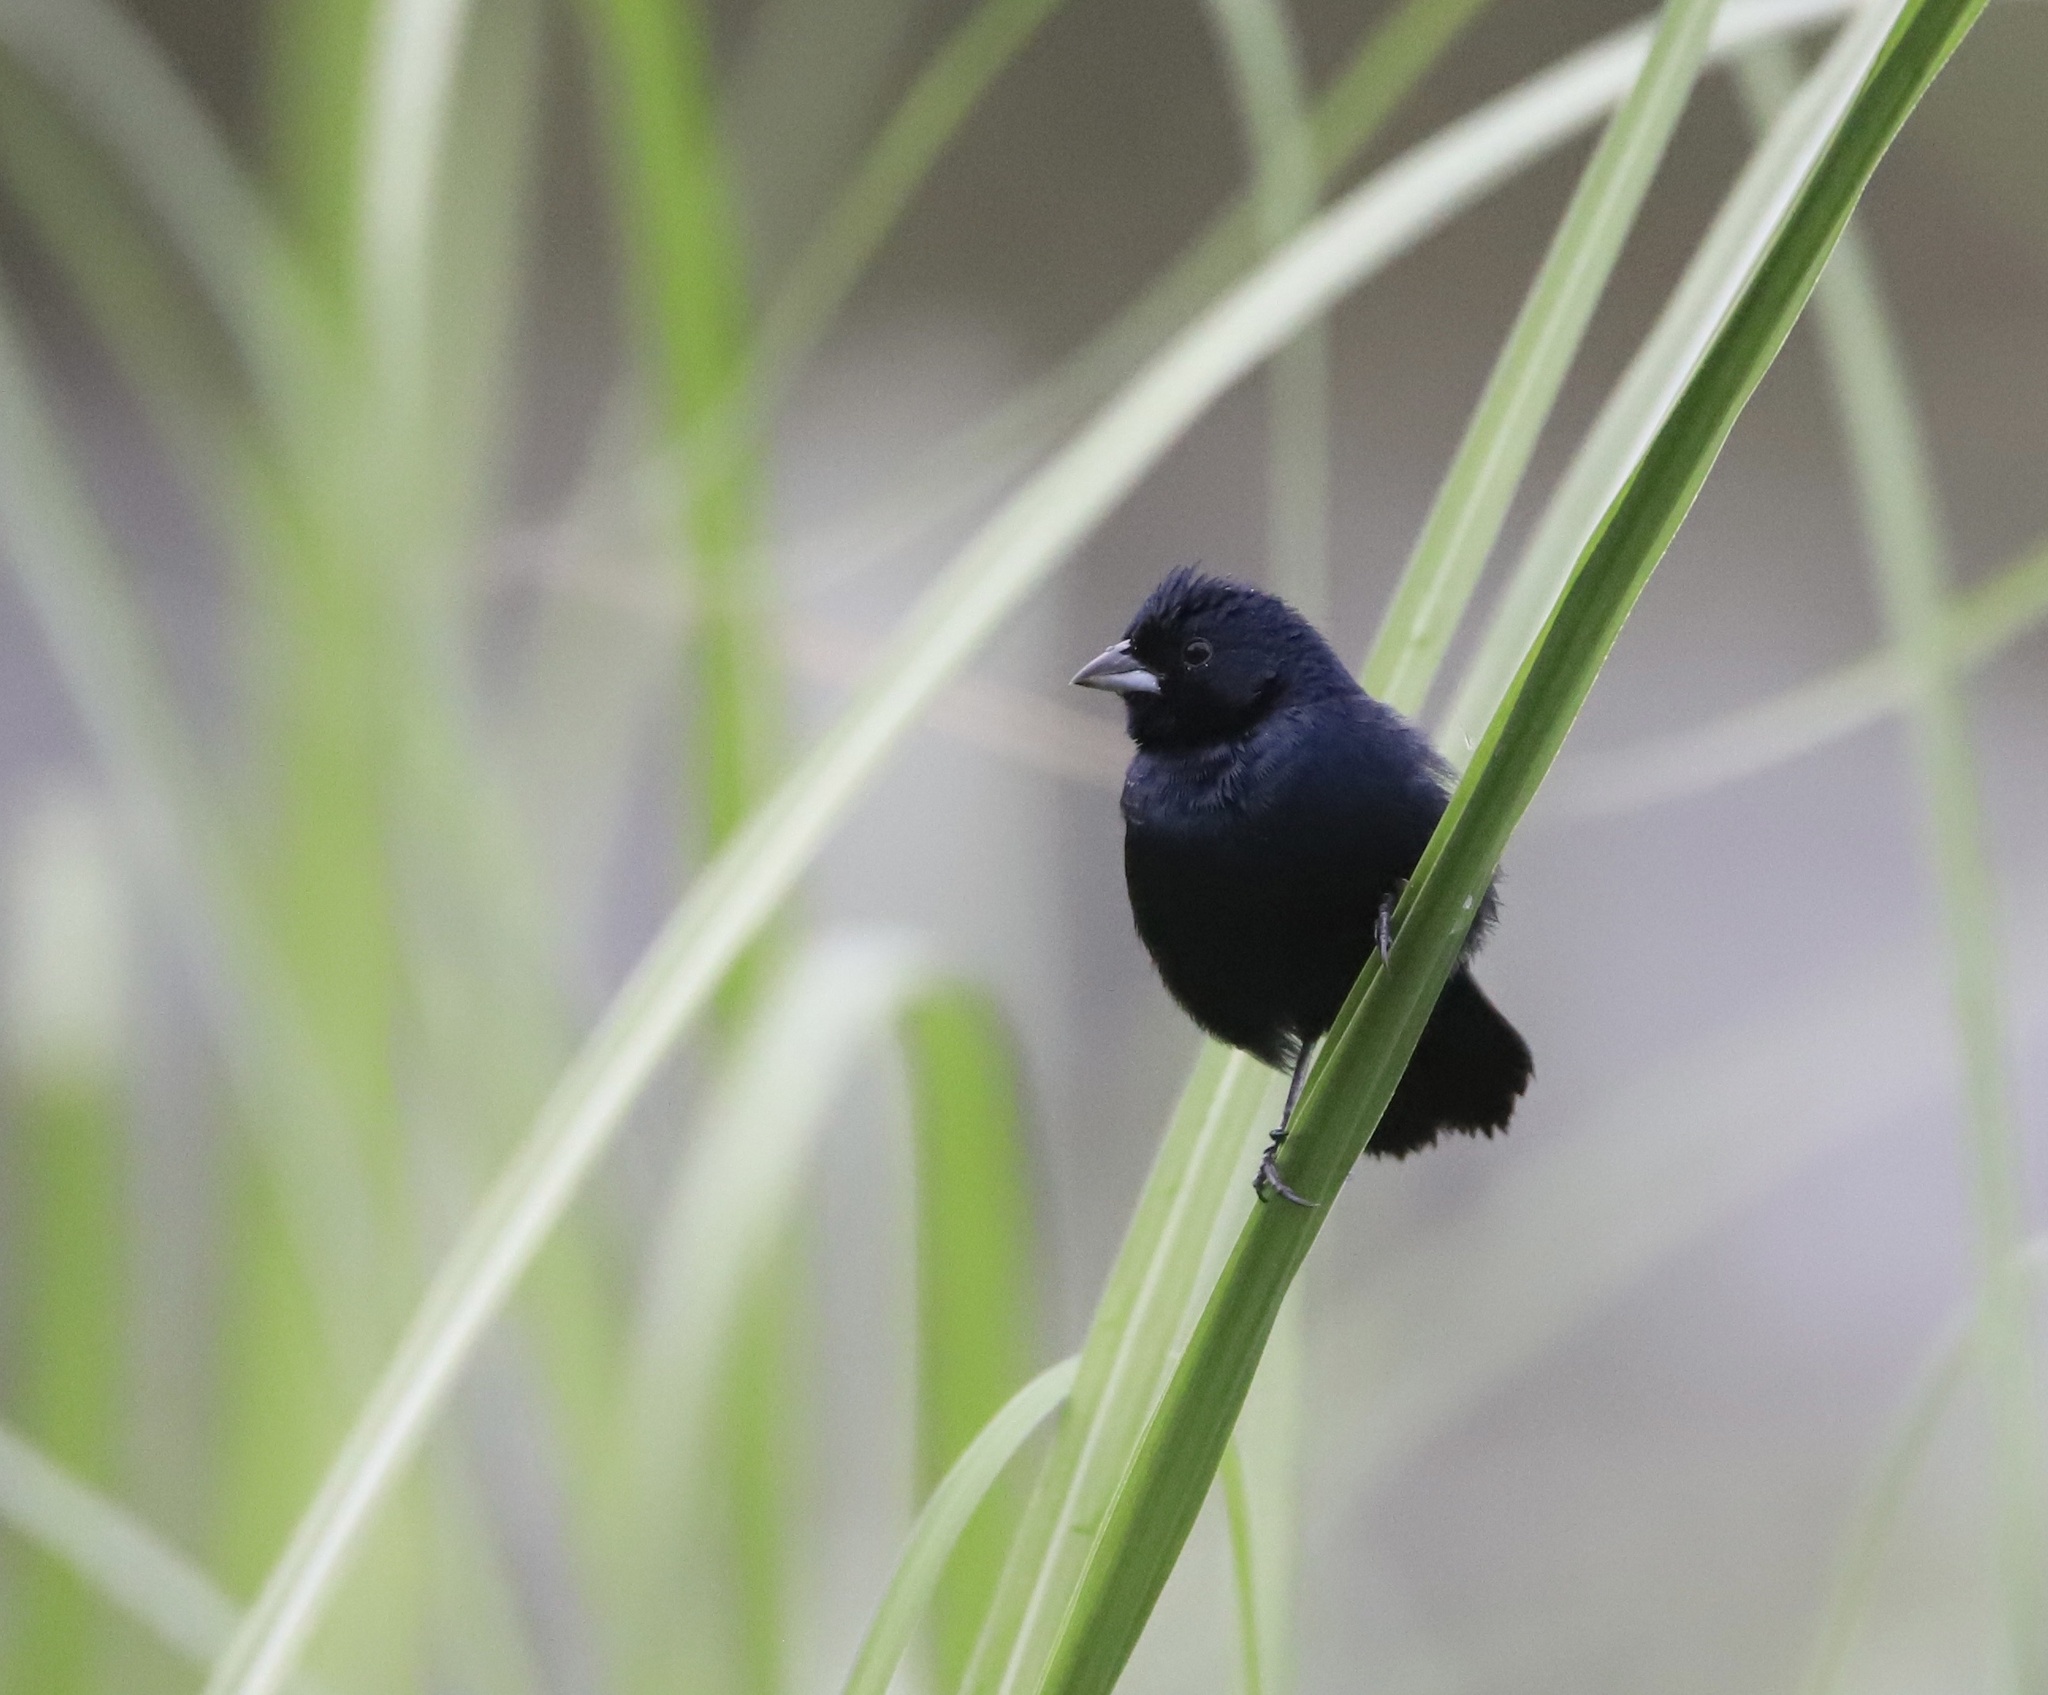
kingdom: Animalia
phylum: Chordata
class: Aves
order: Passeriformes
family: Thraupidae
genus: Volatinia
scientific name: Volatinia jacarina
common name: Blue-black grassquit
